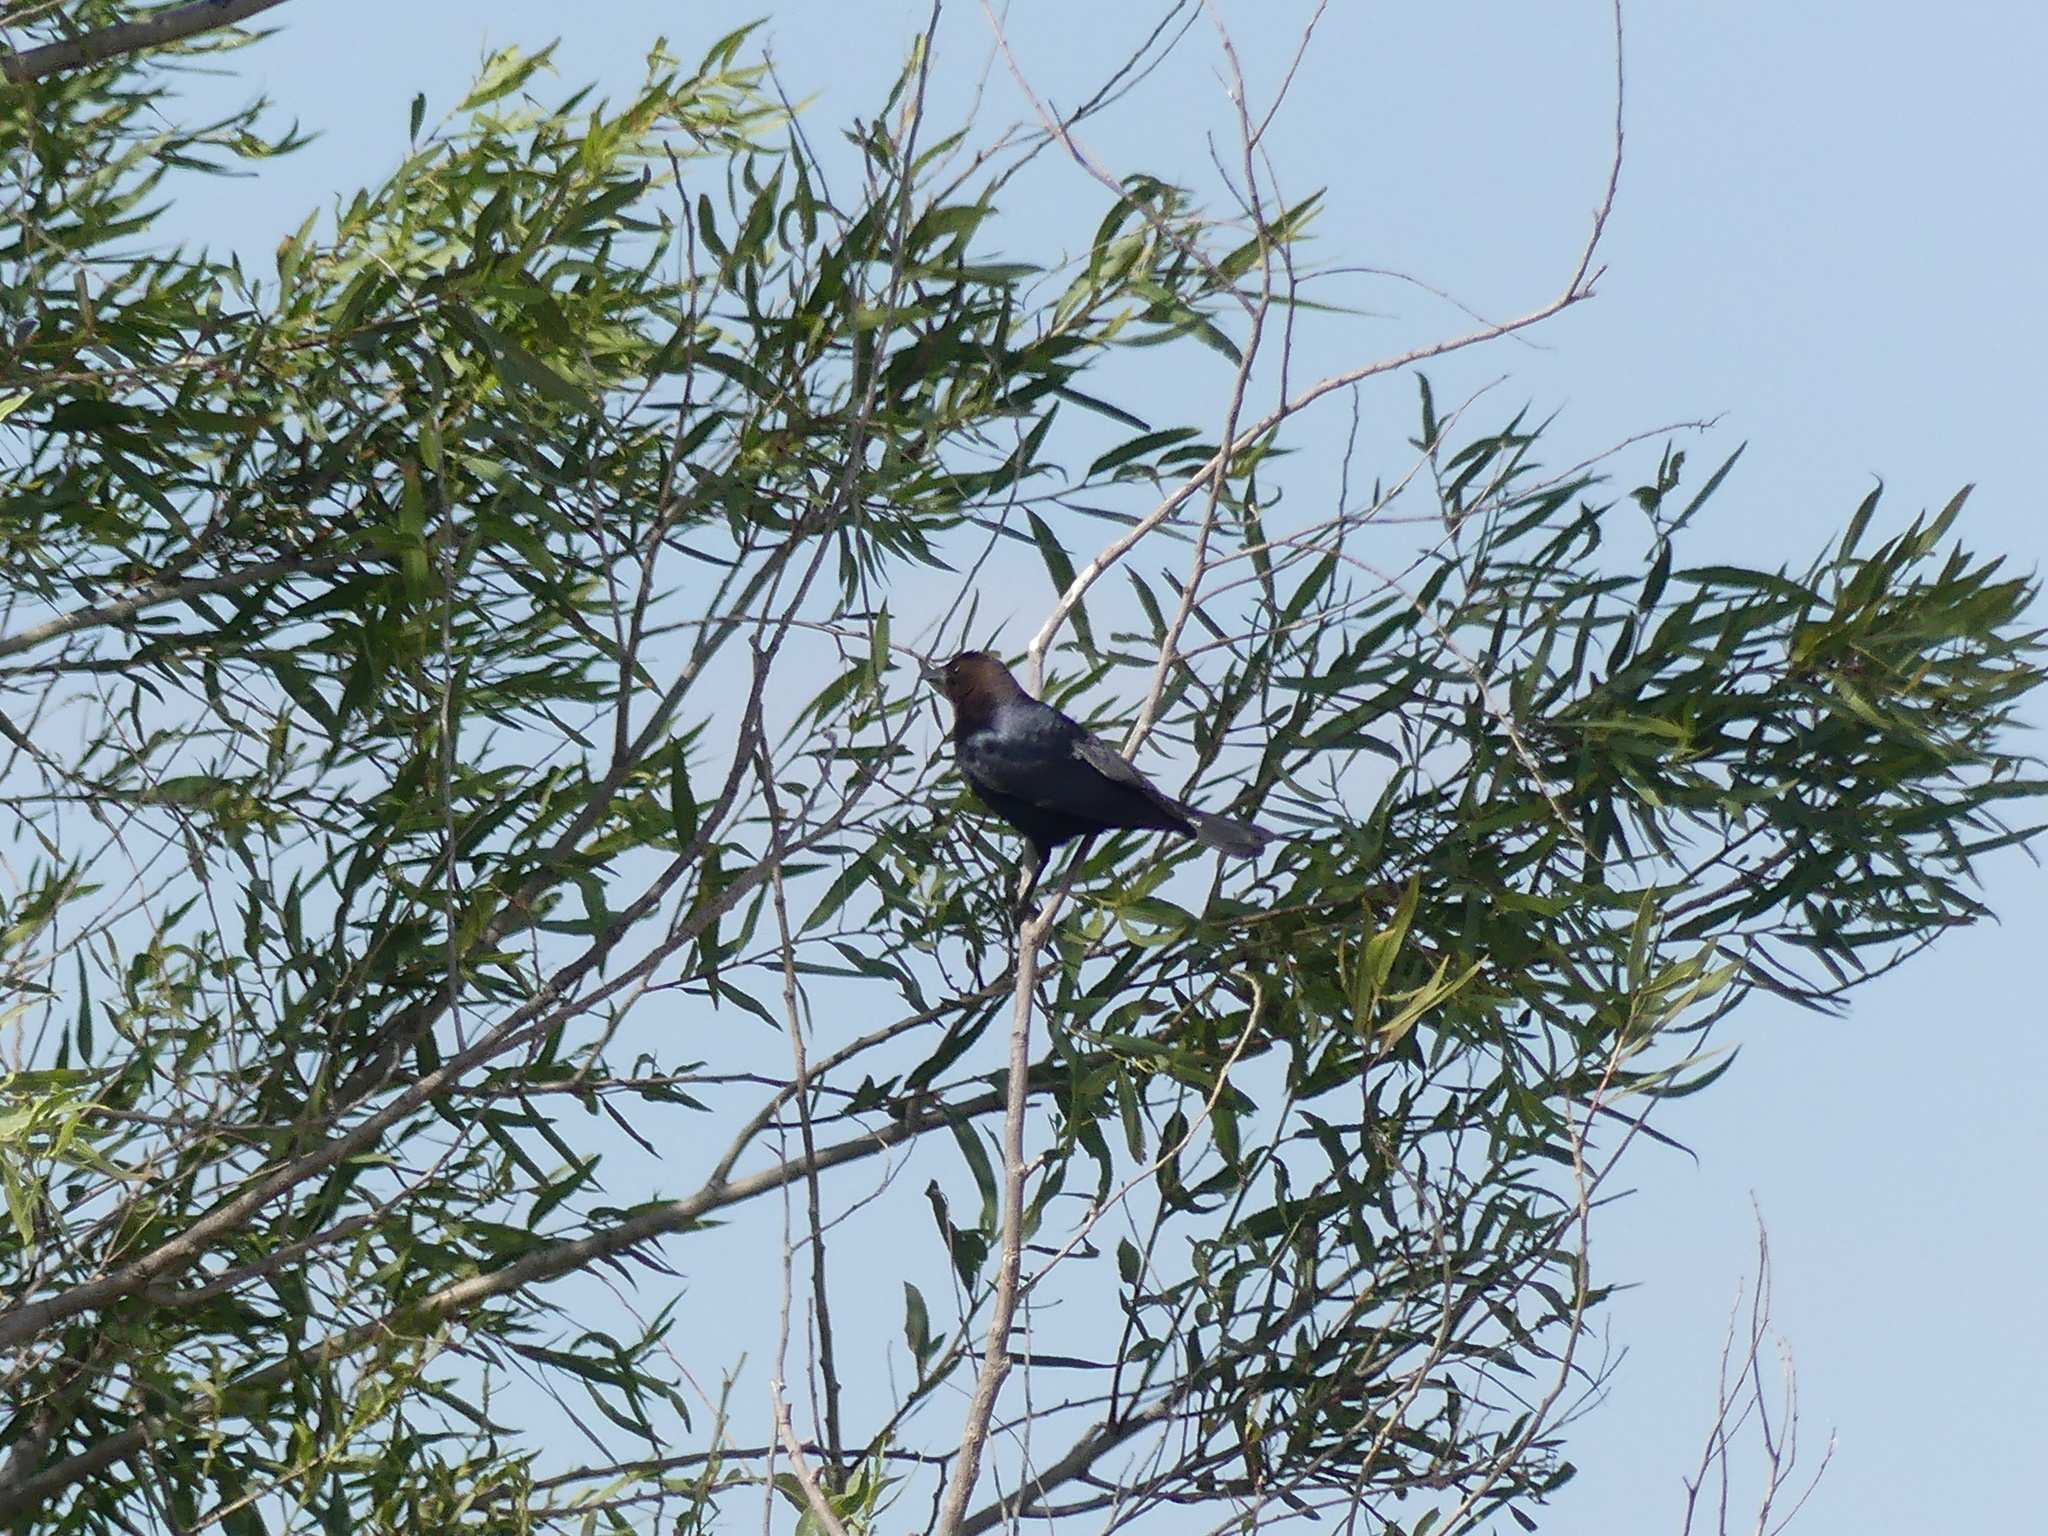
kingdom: Animalia
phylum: Chordata
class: Aves
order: Passeriformes
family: Icteridae
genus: Molothrus
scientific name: Molothrus ater
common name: Brown-headed cowbird
